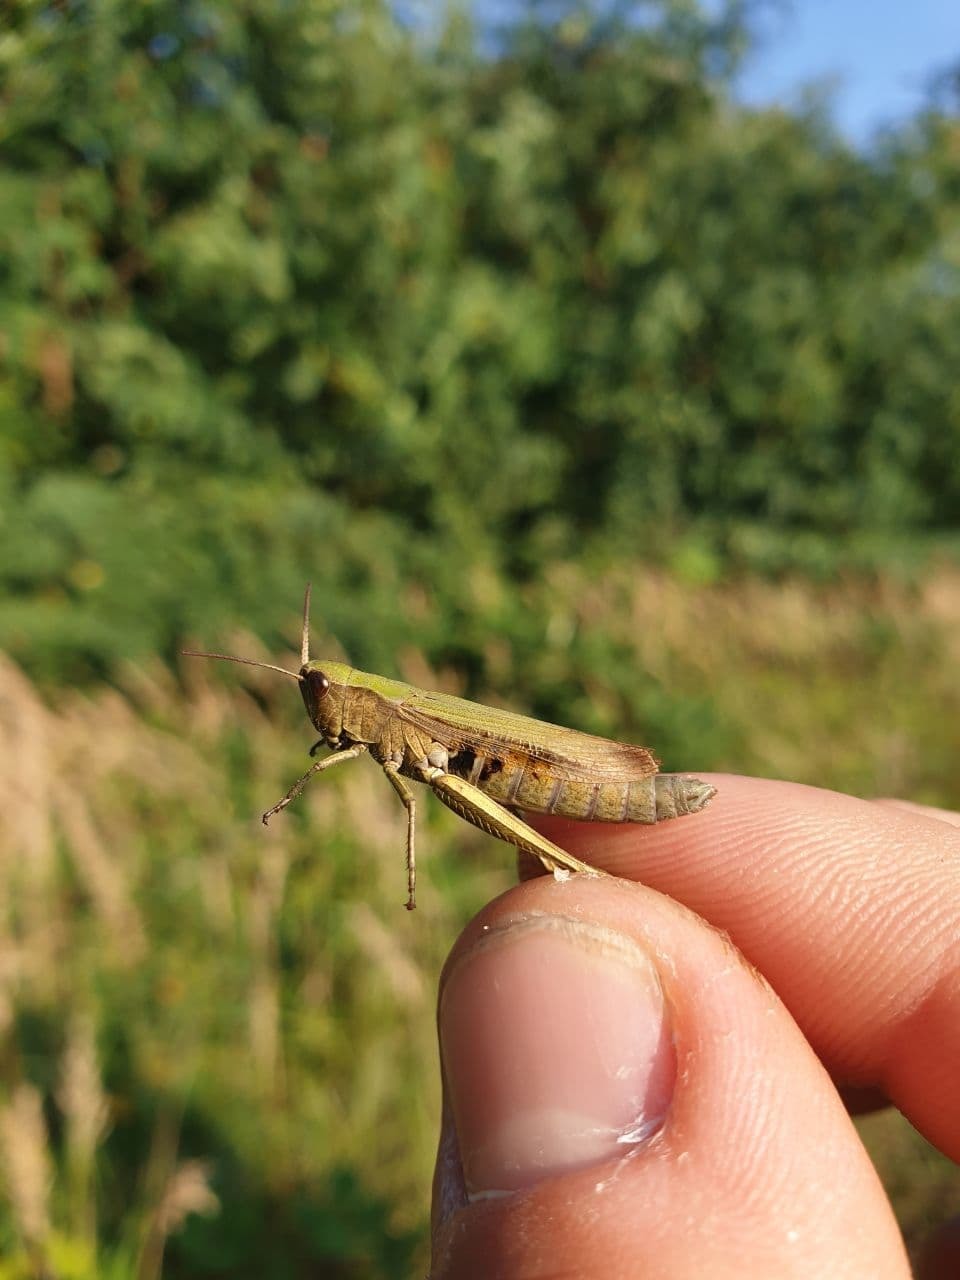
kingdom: Animalia
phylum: Arthropoda
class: Insecta
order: Orthoptera
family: Acrididae
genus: Chorthippus
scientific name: Chorthippus dorsatus
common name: Steppe grasshopper
